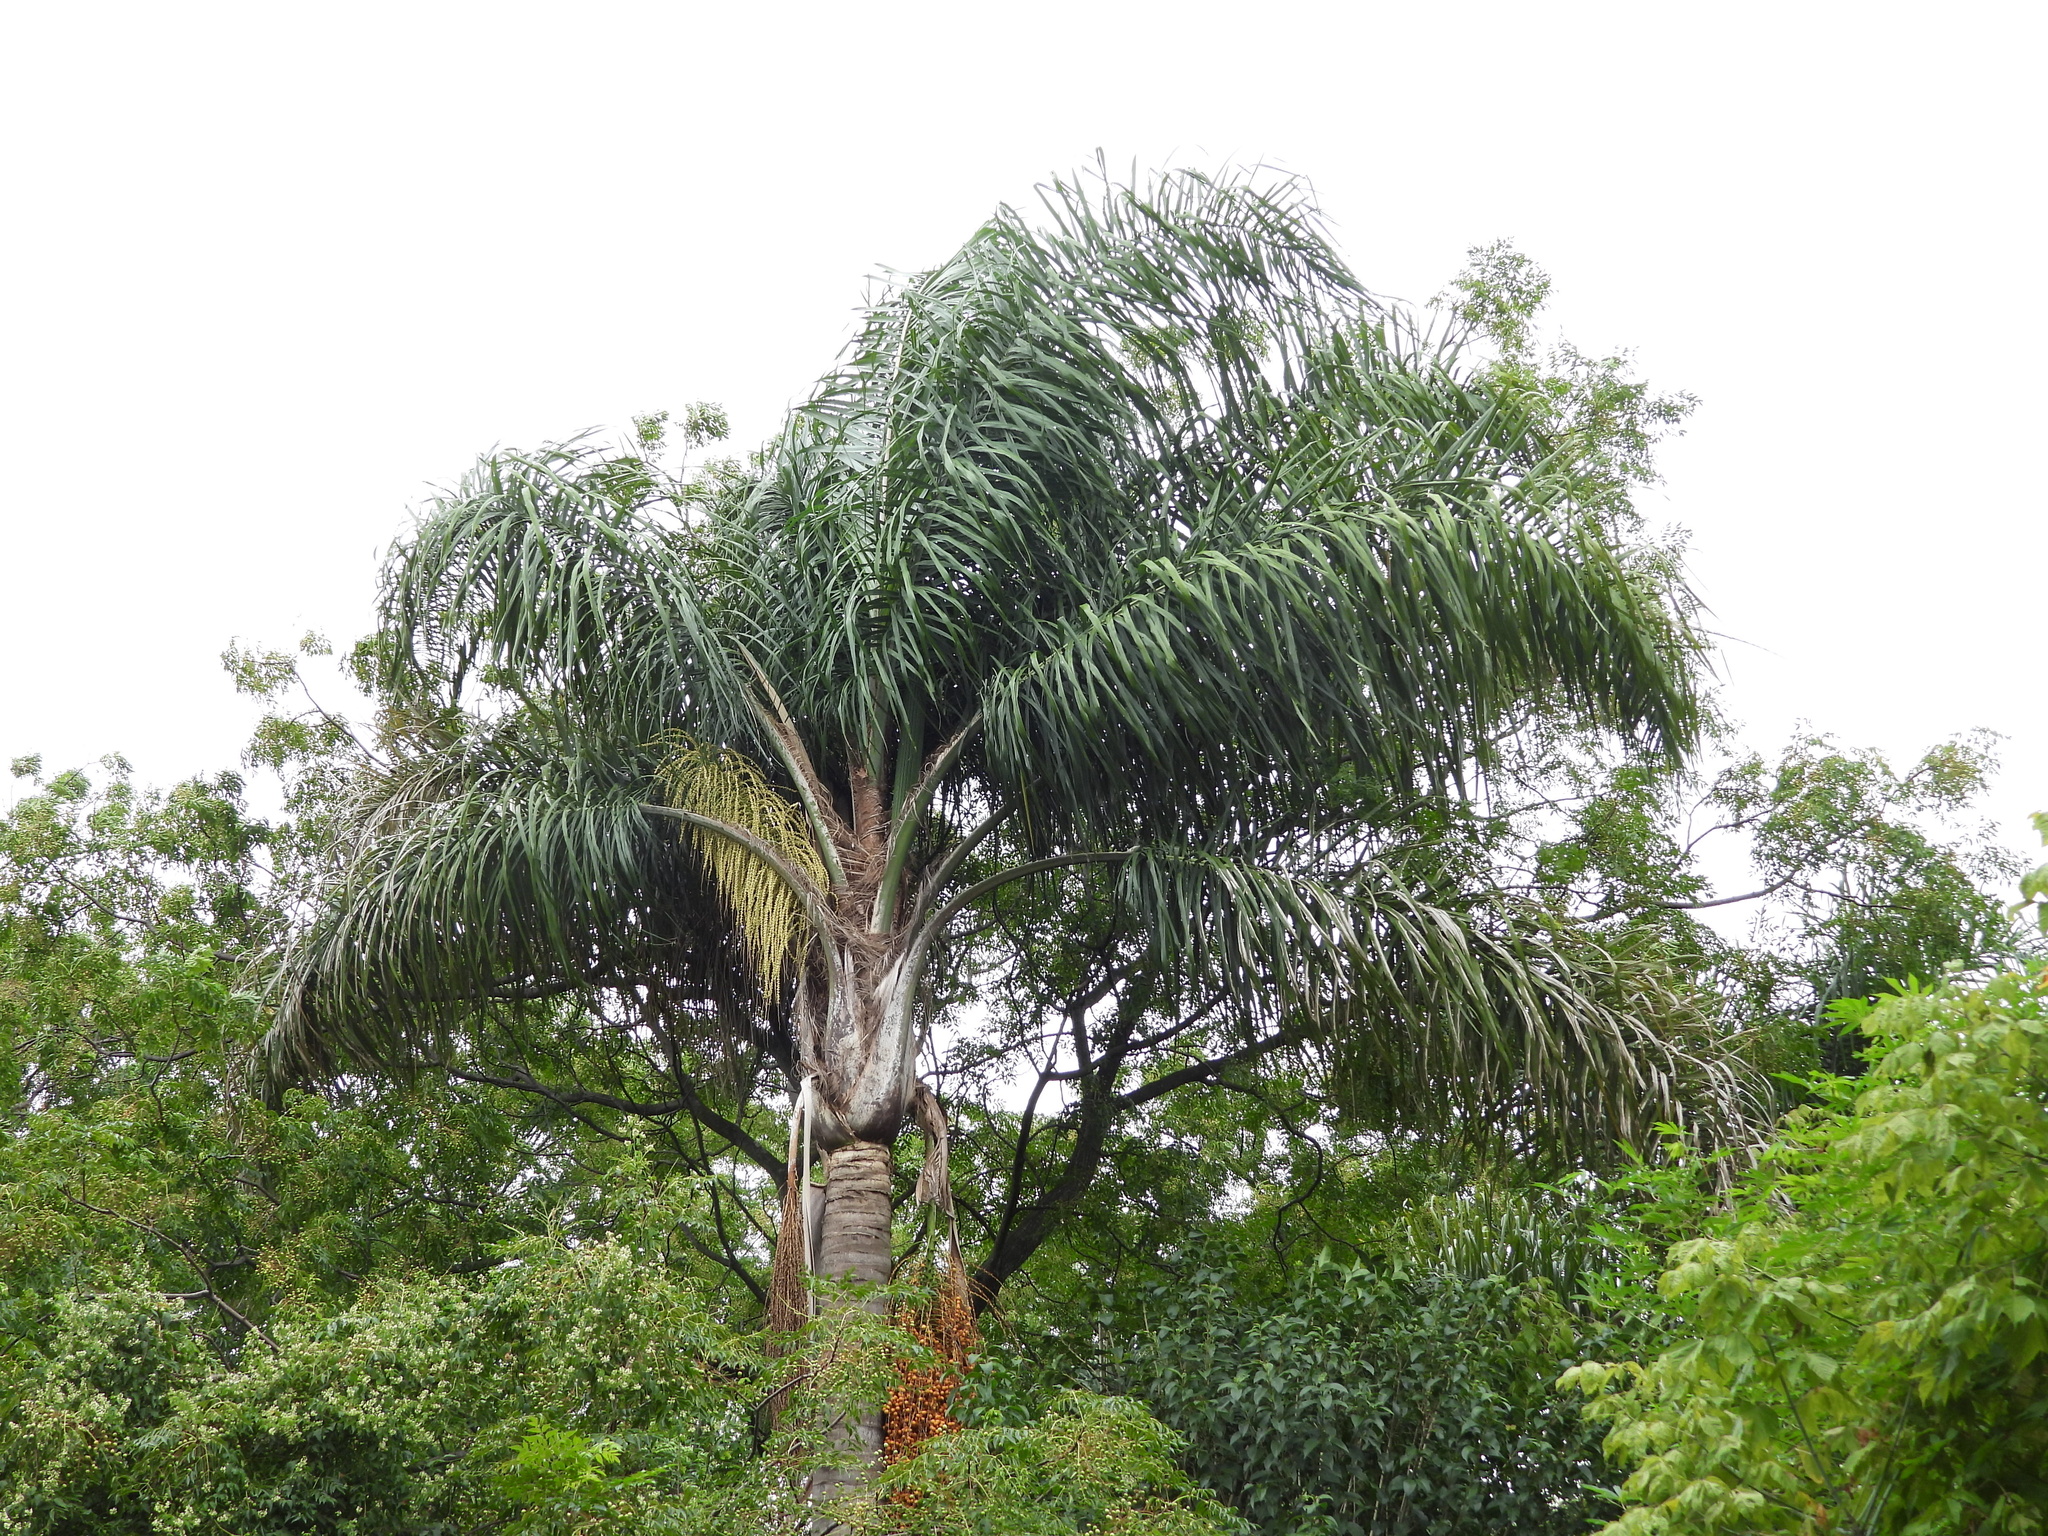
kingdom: Plantae
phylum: Tracheophyta
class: Liliopsida
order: Arecales
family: Arecaceae
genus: Syagrus
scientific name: Syagrus romanzoffiana
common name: Queen palm
